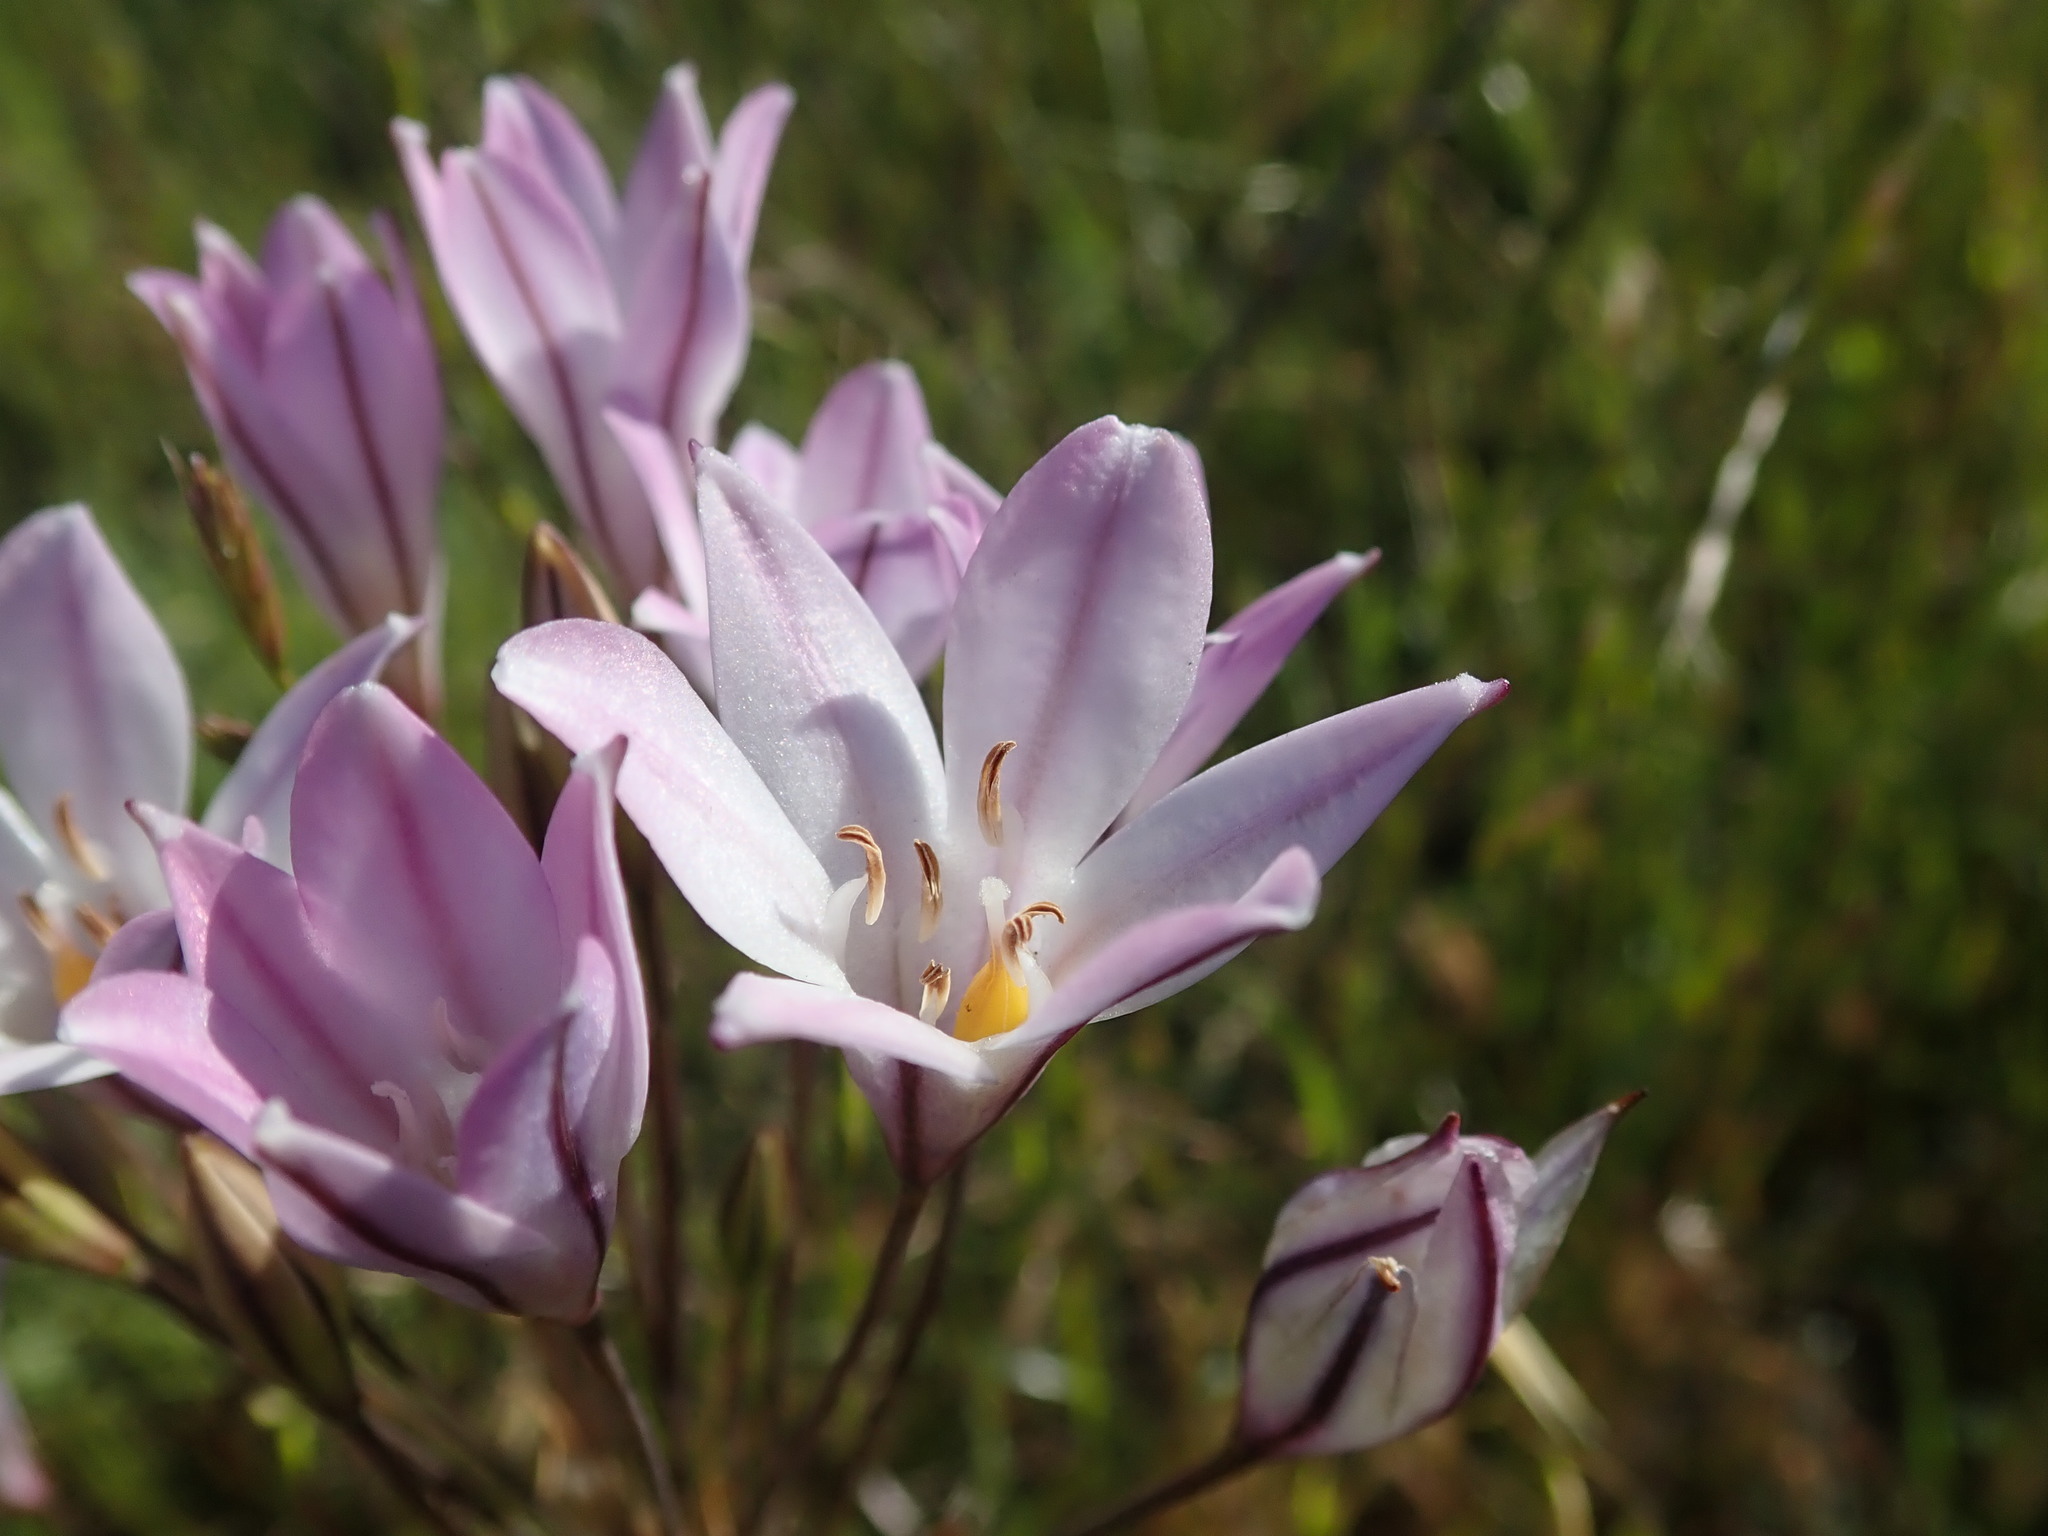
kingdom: Plantae
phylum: Tracheophyta
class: Liliopsida
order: Asparagales
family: Asparagaceae
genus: Triteleia
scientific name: Triteleia peduncularis
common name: Long-ray brodiaea
